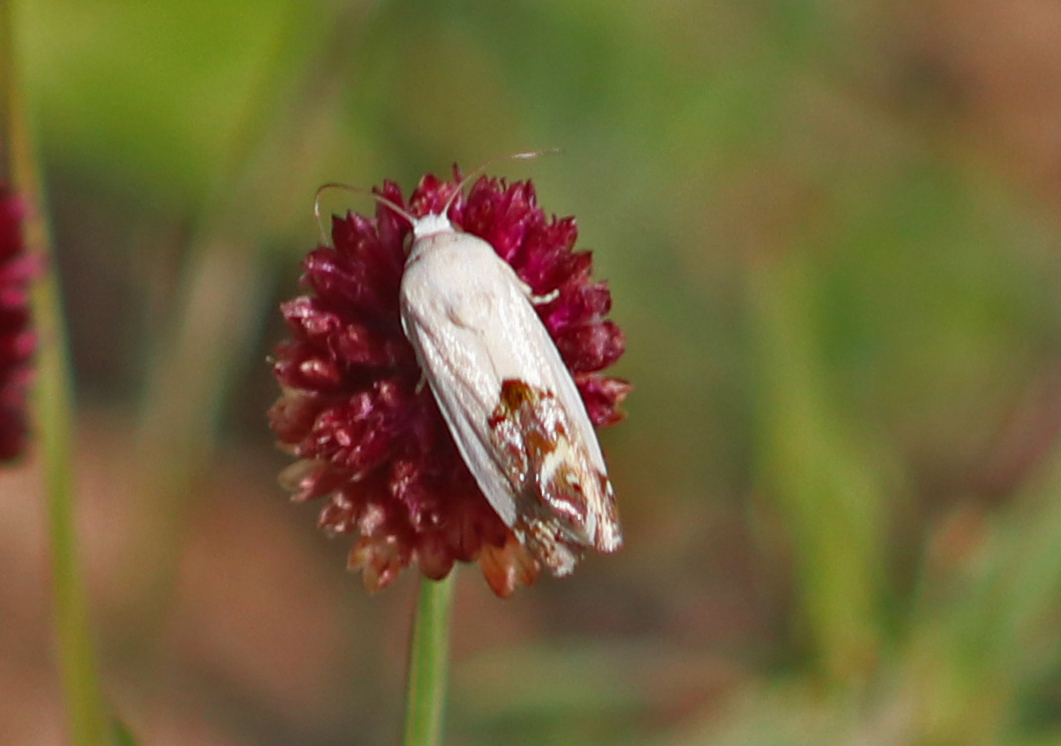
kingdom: Animalia
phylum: Arthropoda
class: Insecta
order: Lepidoptera
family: Noctuidae
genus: Acontia
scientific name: Acontia clerana
